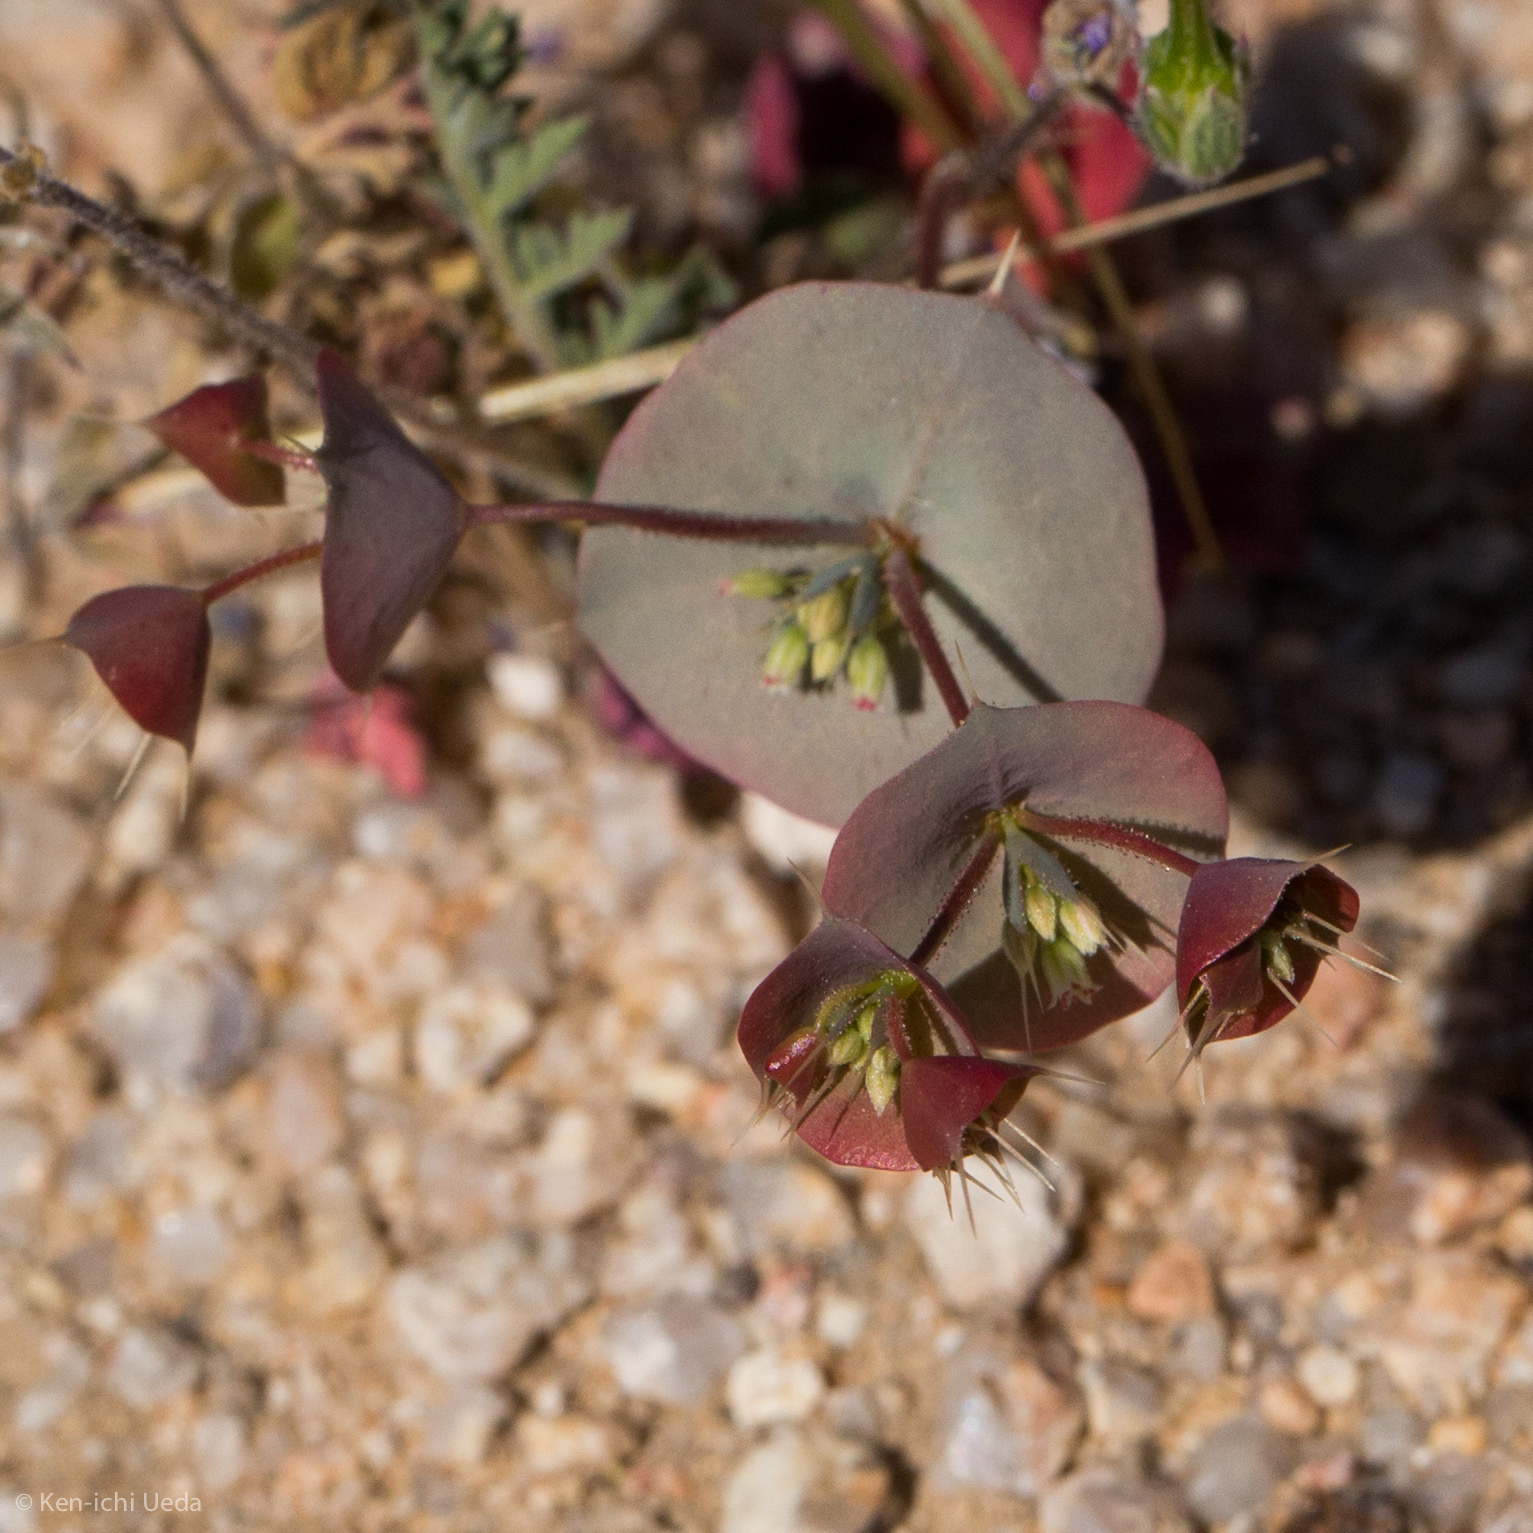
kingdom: Plantae
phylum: Tracheophyta
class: Magnoliopsida
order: Caryophyllales
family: Polygonaceae
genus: Oxytheca
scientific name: Oxytheca perfoliata
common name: Round-leaf puncturebract
